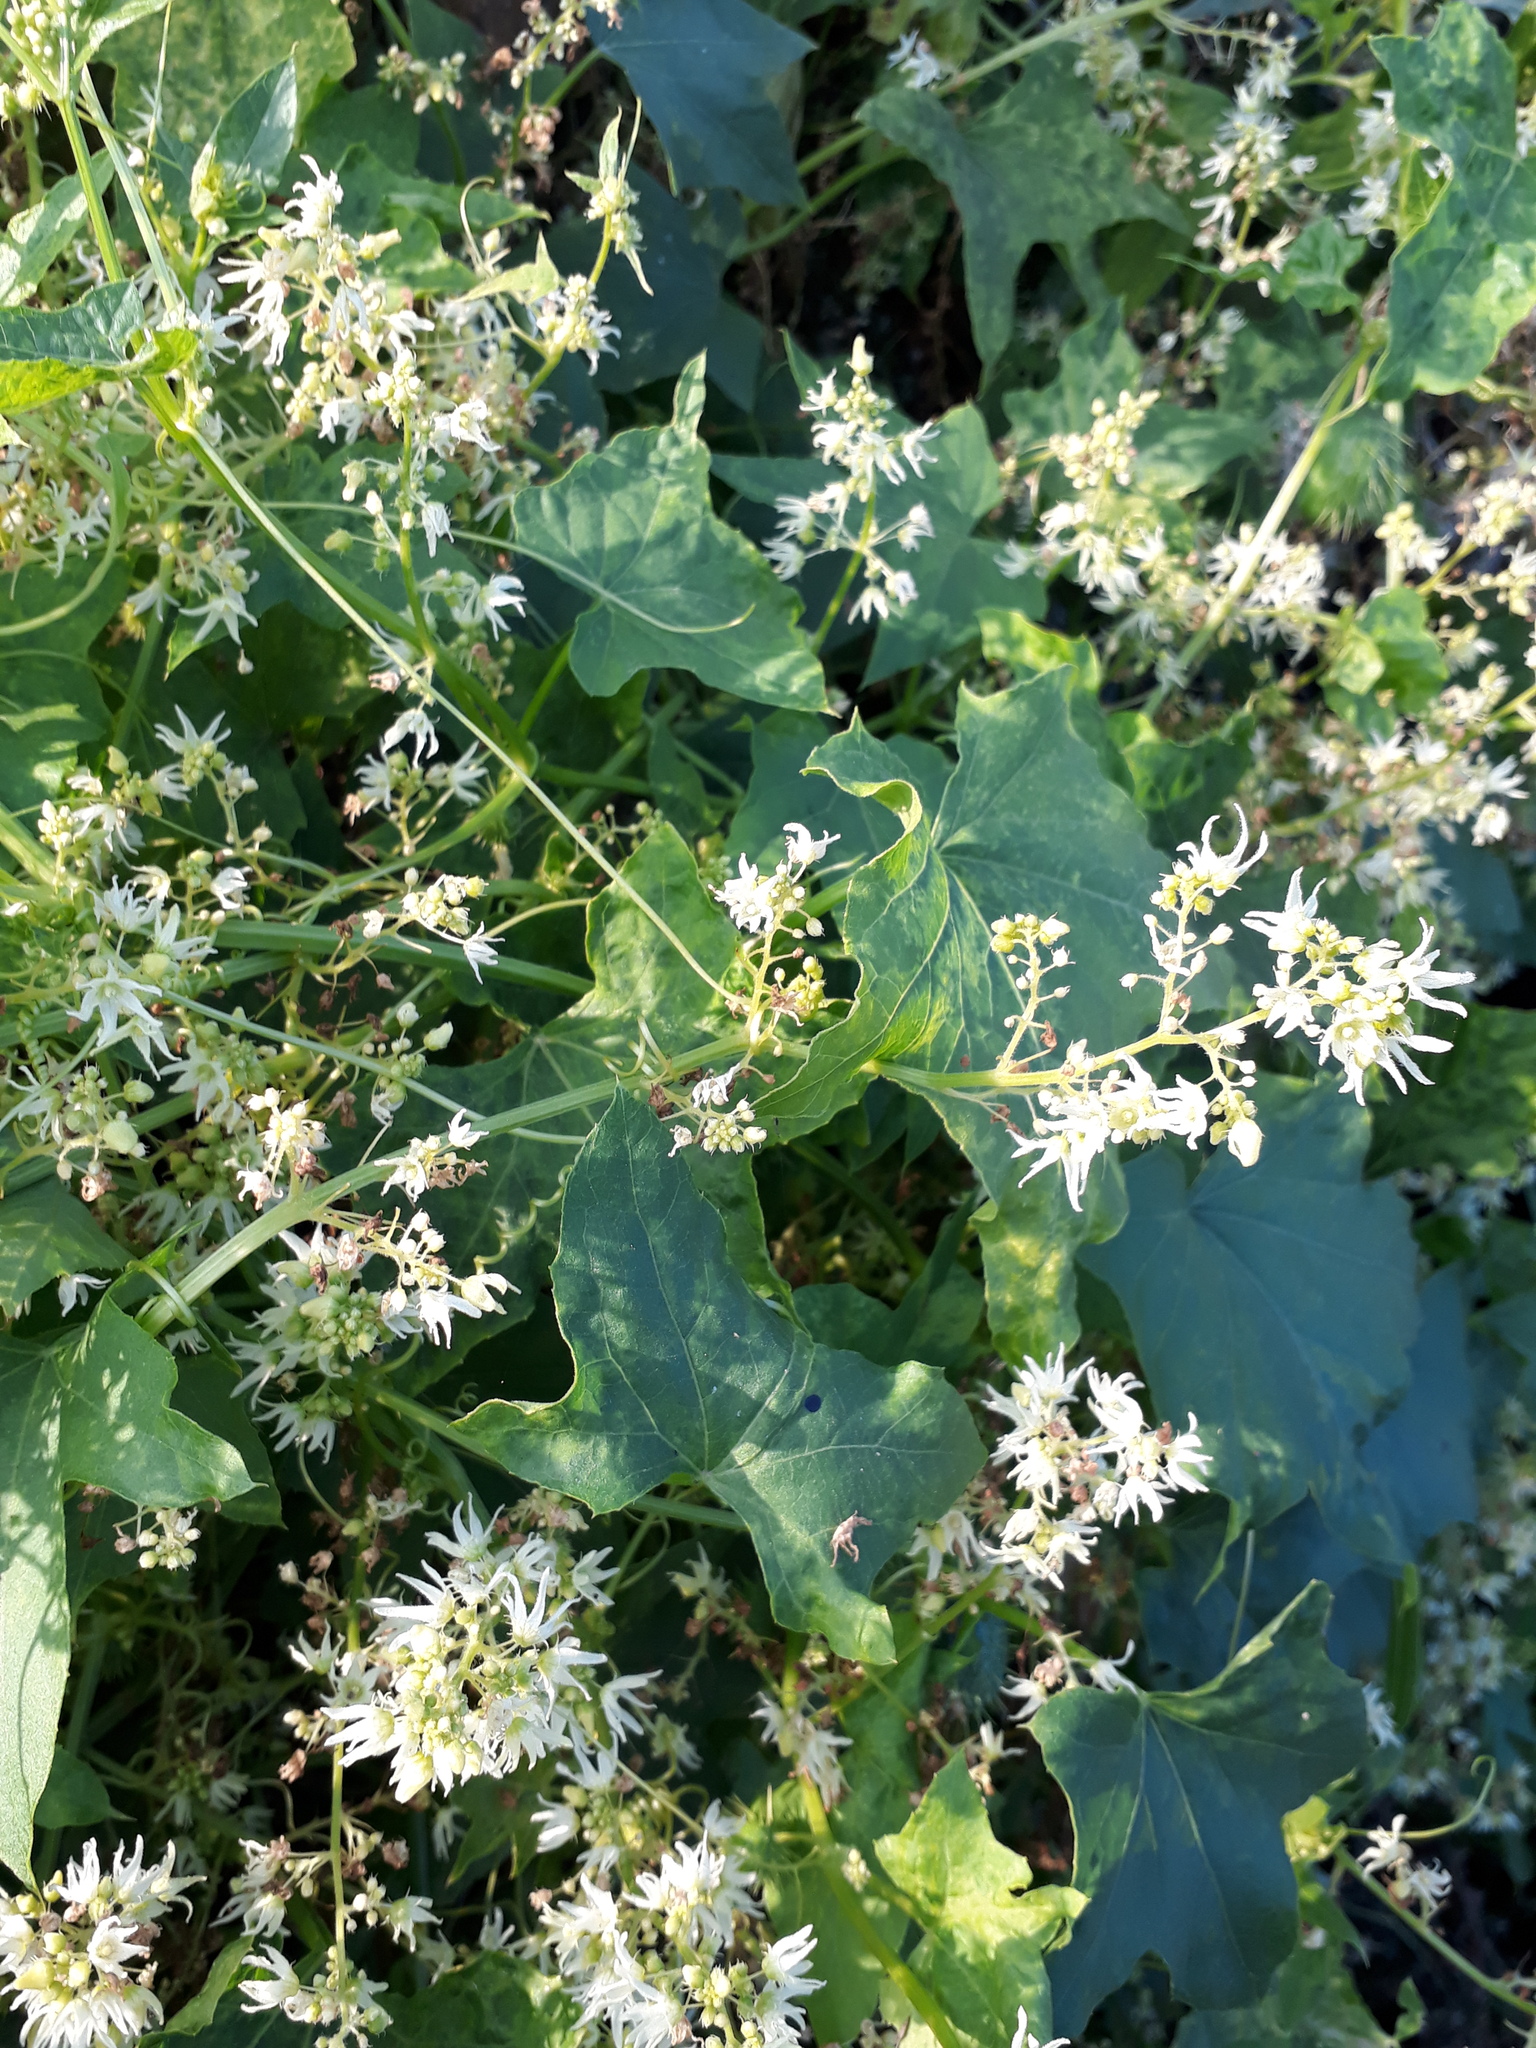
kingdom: Plantae
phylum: Tracheophyta
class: Magnoliopsida
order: Cucurbitales
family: Cucurbitaceae
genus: Echinocystis
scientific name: Echinocystis lobata
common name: Wild cucumber
